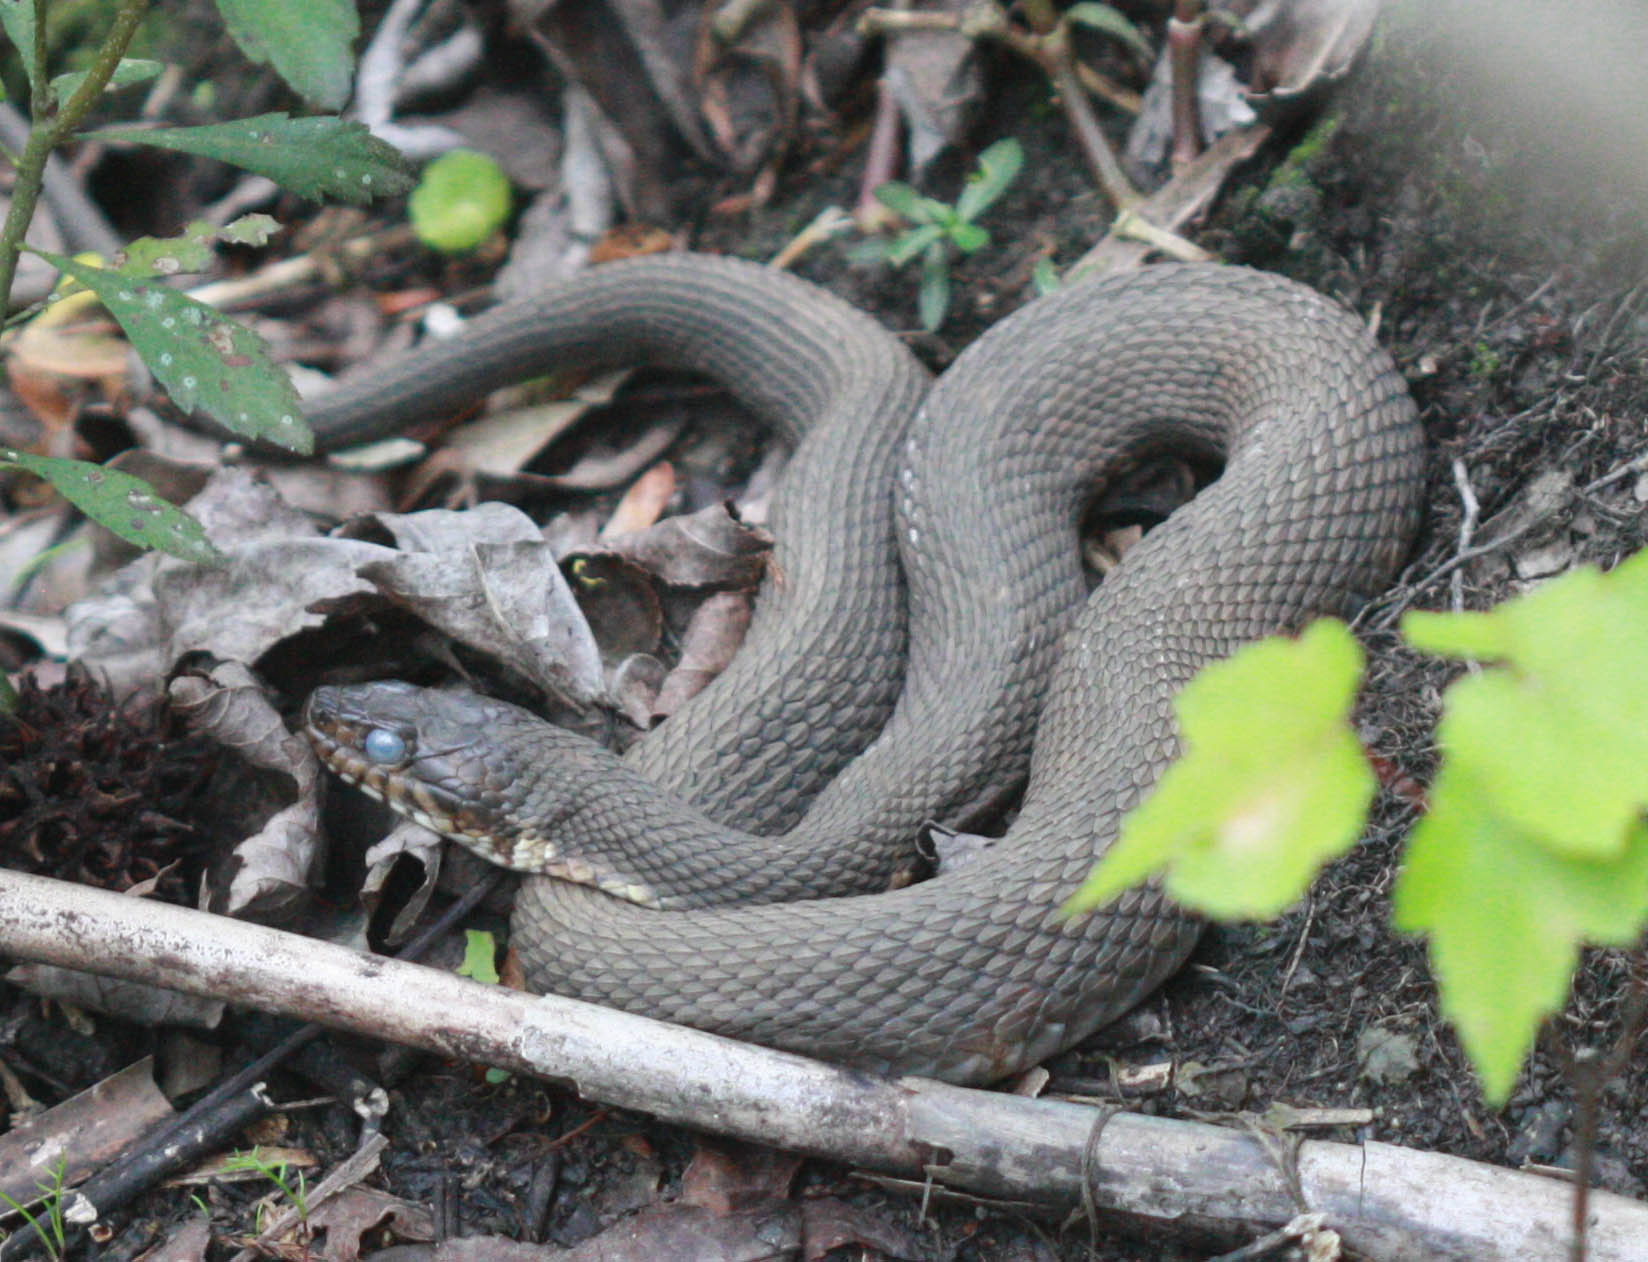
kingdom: Animalia
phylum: Chordata
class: Squamata
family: Colubridae
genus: Nerodia
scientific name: Nerodia erythrogaster
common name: Plainbelly water snake
